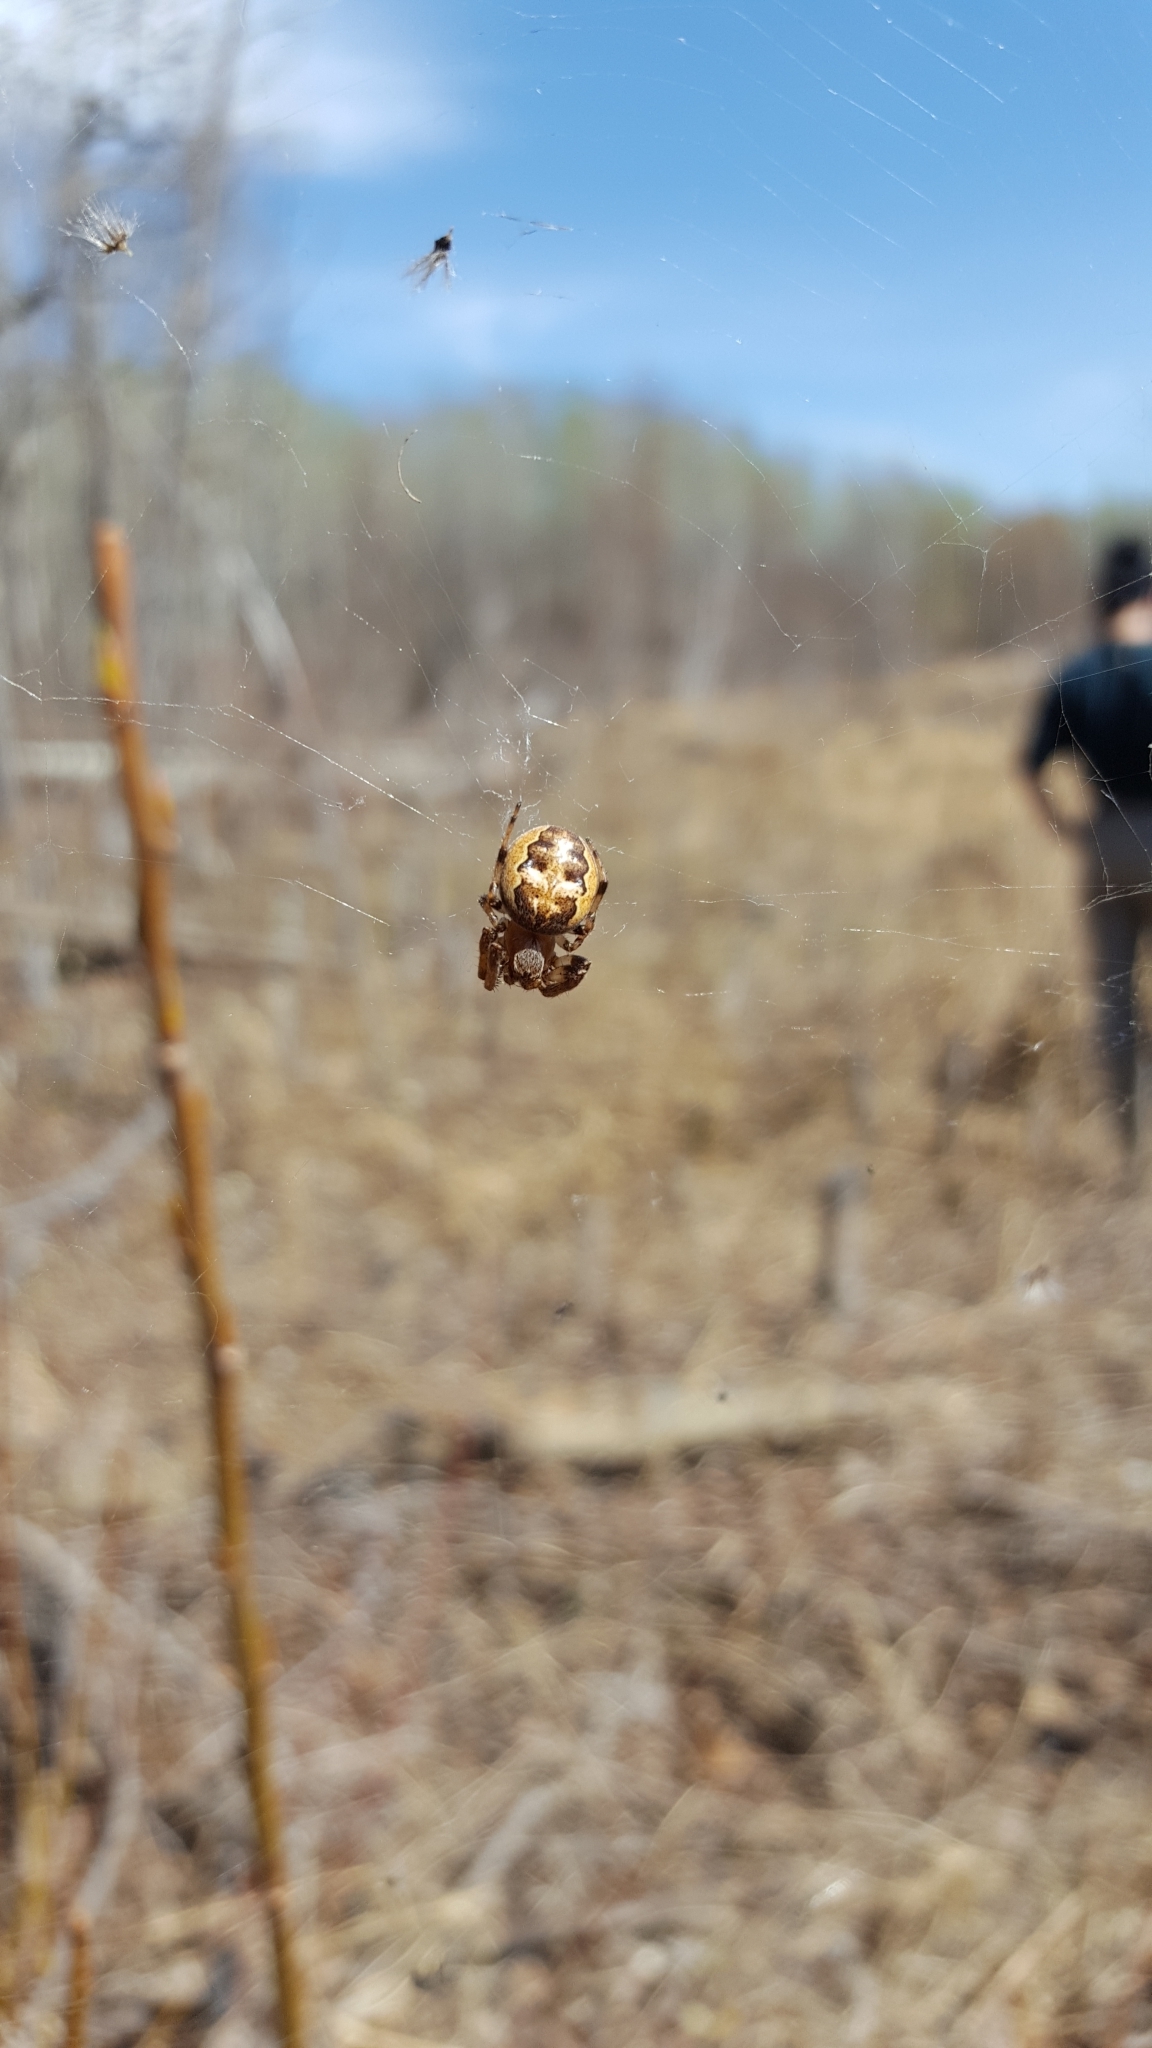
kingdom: Animalia
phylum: Arthropoda
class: Arachnida
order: Araneae
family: Araneidae
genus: Larinioides
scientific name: Larinioides cornutus
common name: Furrow orbweaver
